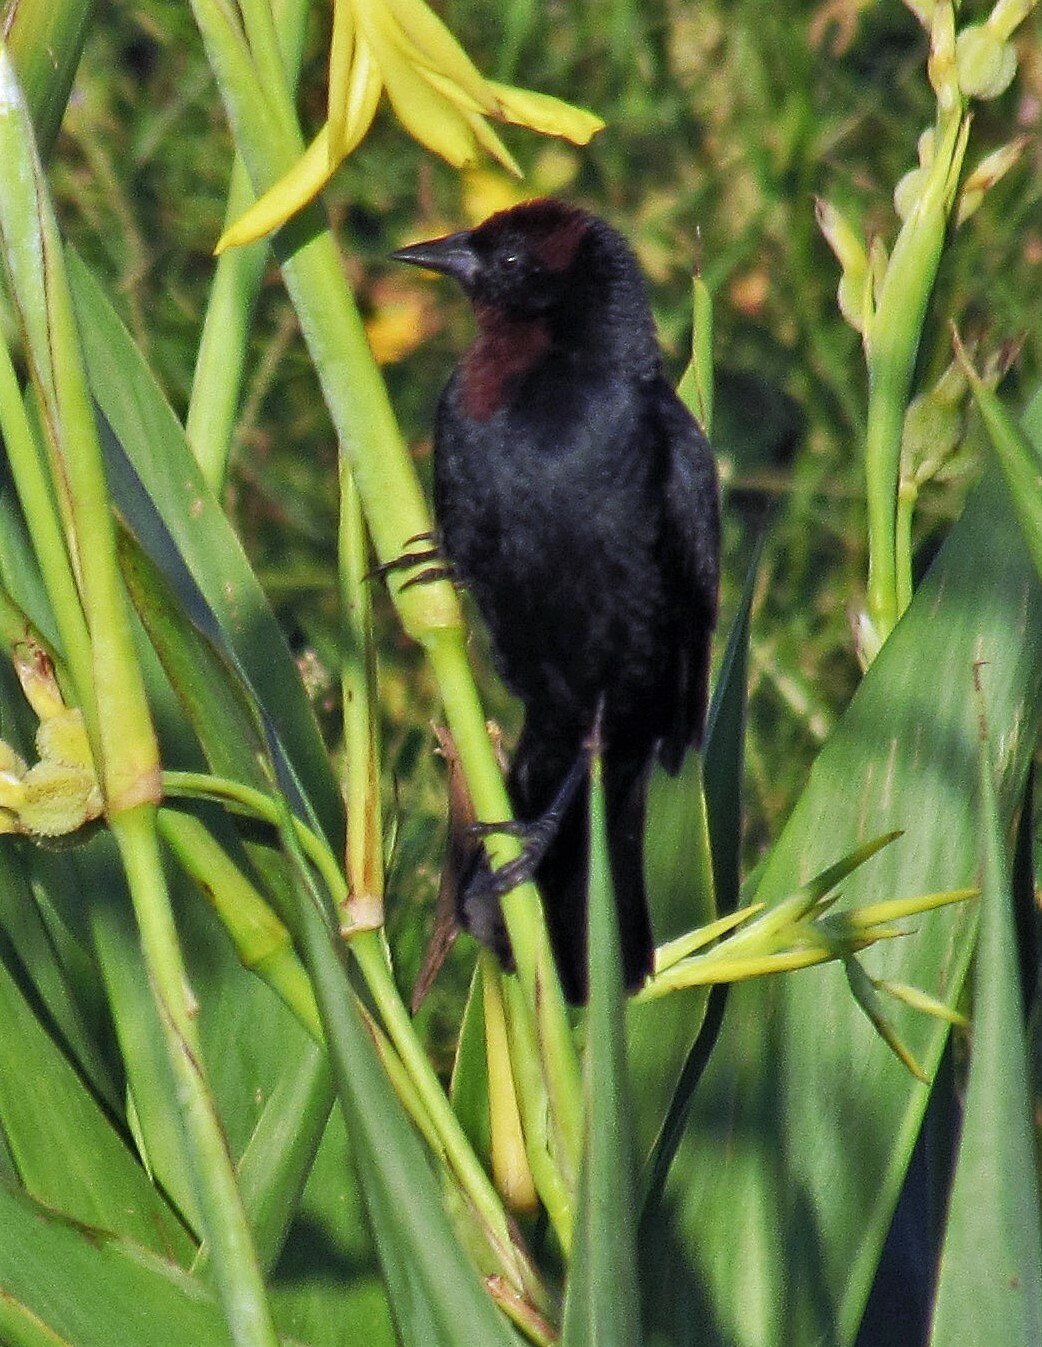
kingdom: Animalia
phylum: Chordata
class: Aves
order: Passeriformes
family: Icteridae
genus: Chrysomus
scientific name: Chrysomus ruficapillus
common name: Chestnut-capped blackbird
